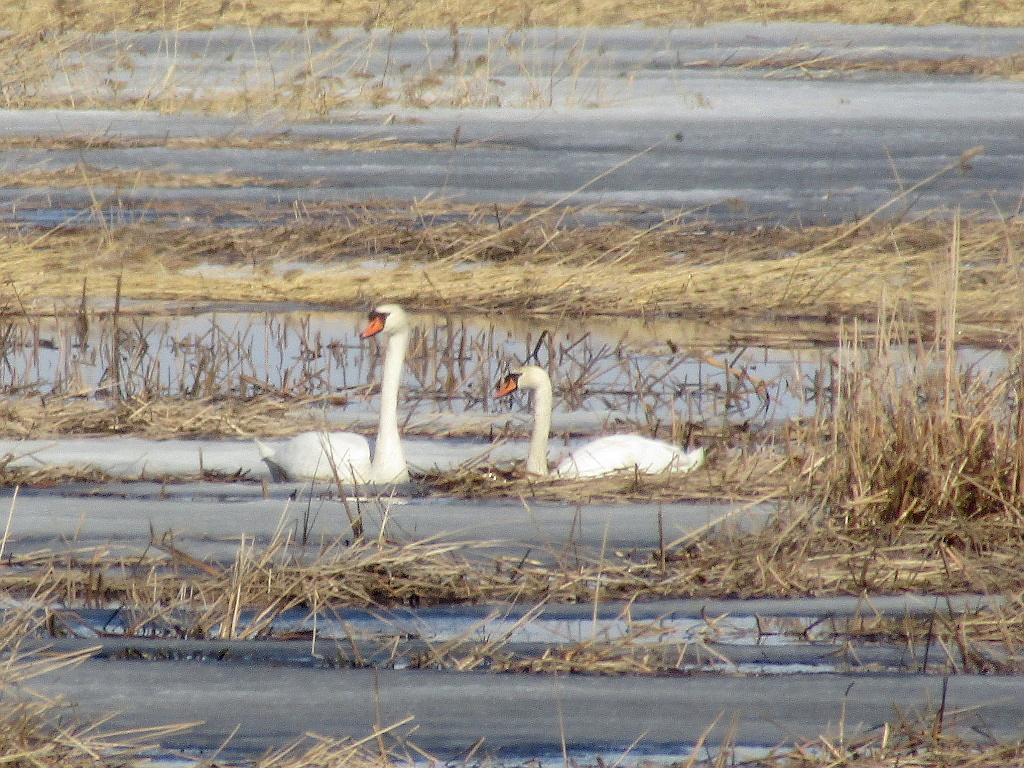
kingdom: Animalia
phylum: Chordata
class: Aves
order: Anseriformes
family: Anatidae
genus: Cygnus
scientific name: Cygnus olor
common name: Mute swan
